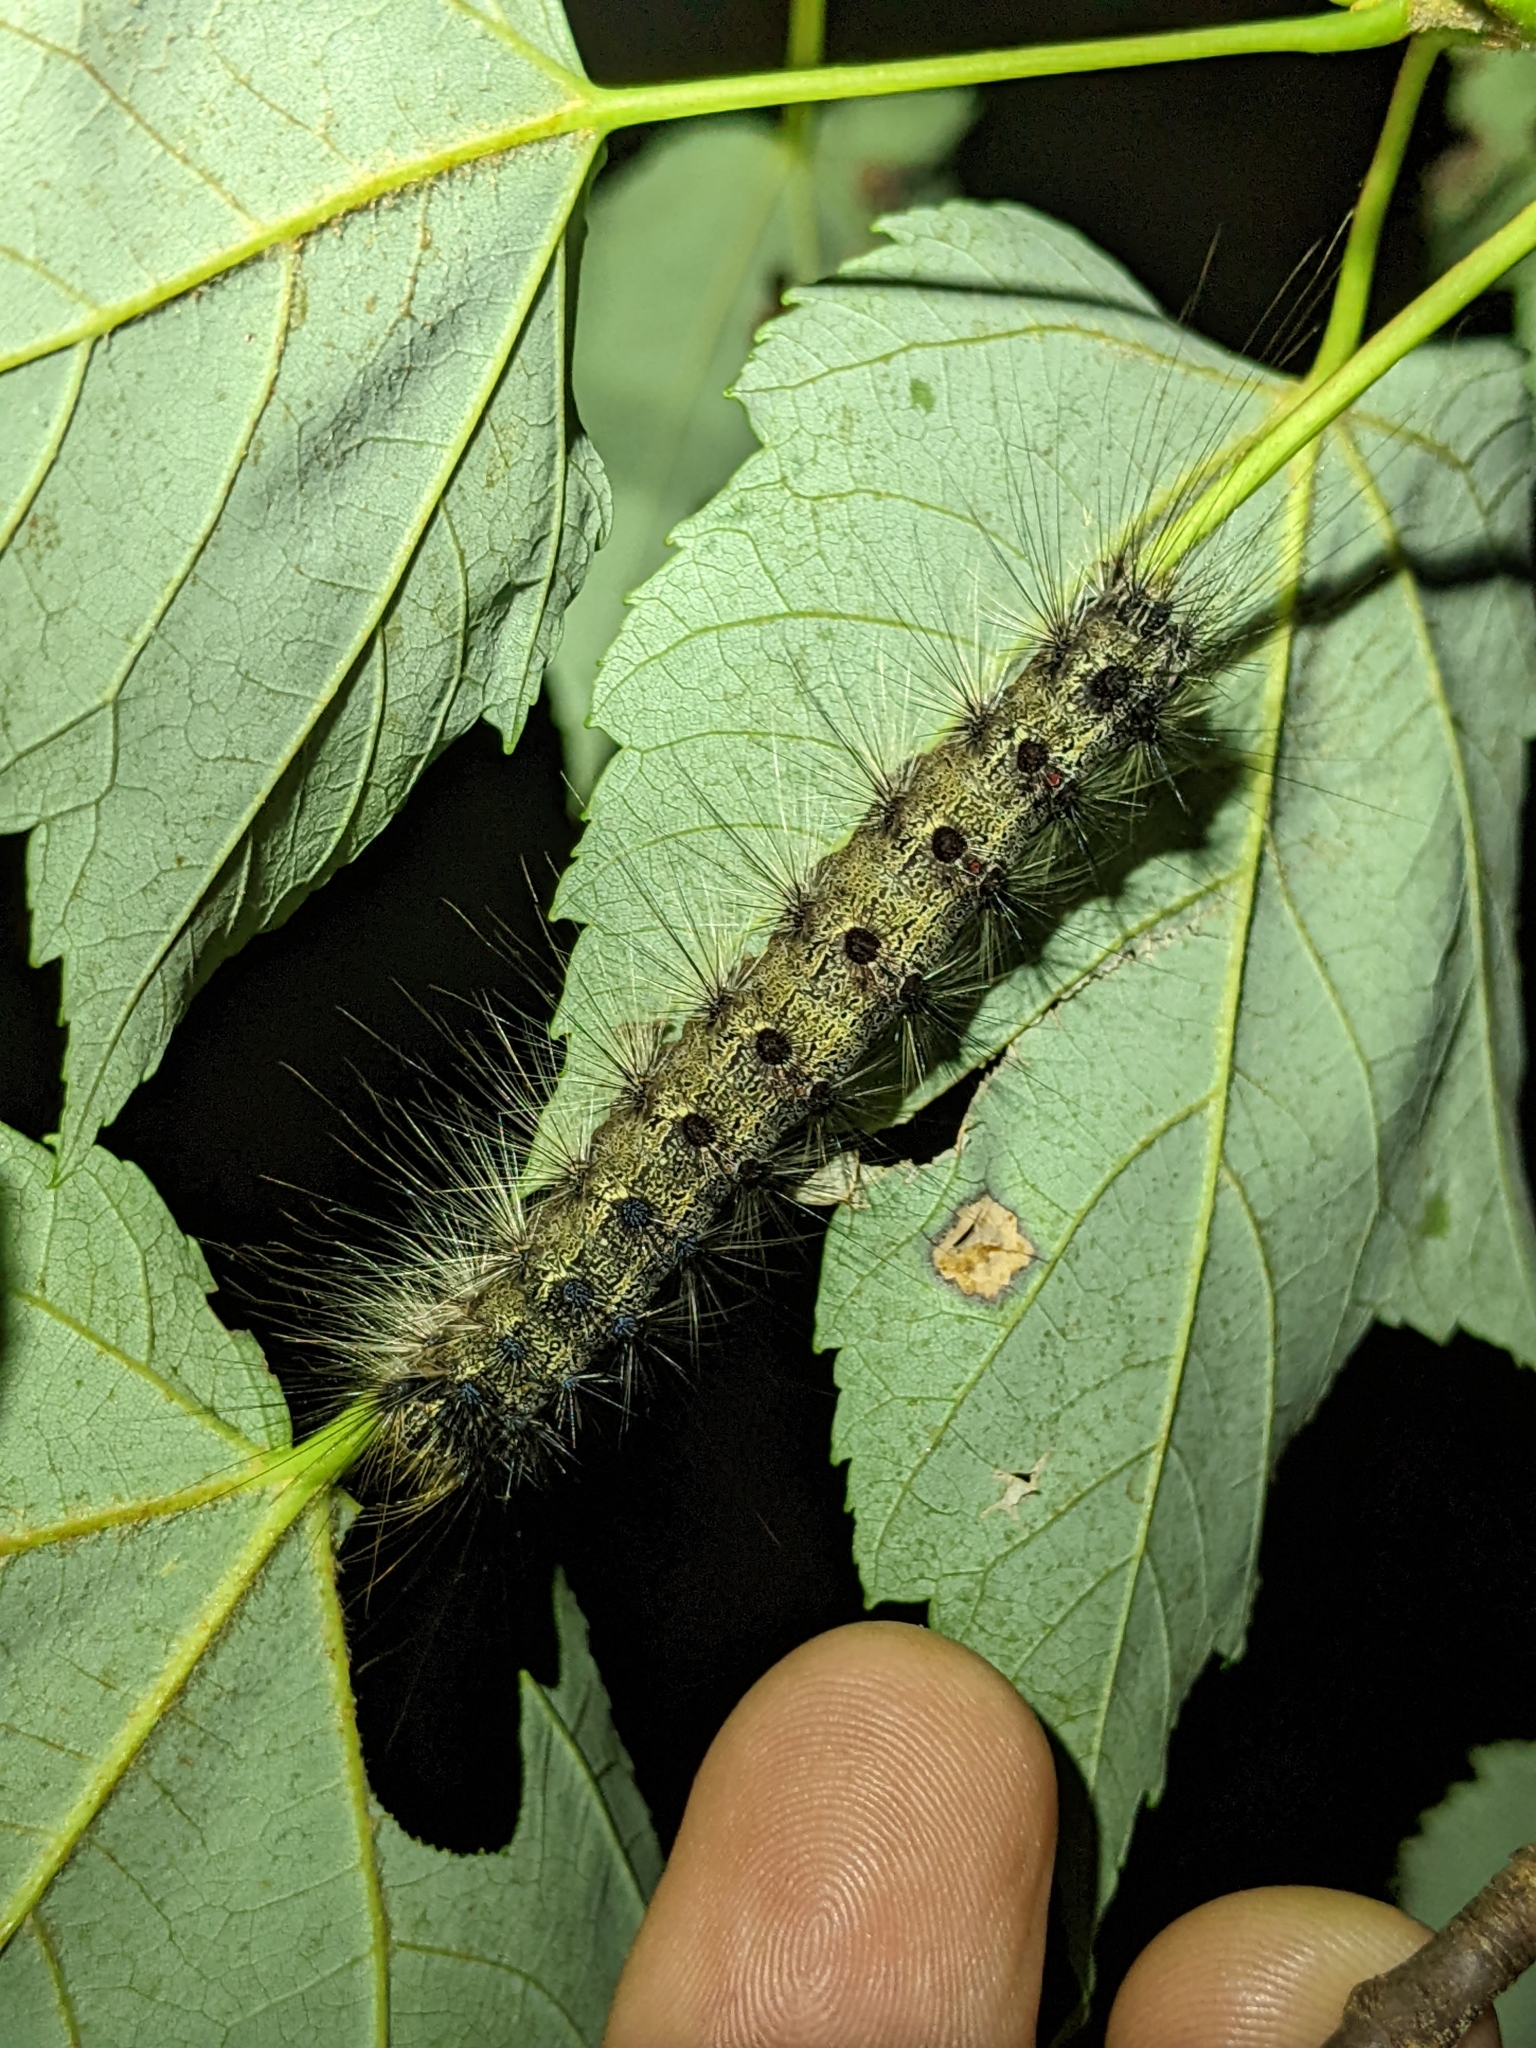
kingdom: Animalia
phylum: Arthropoda
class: Insecta
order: Lepidoptera
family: Erebidae
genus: Lymantria
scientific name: Lymantria dispar
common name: Gypsy moth
